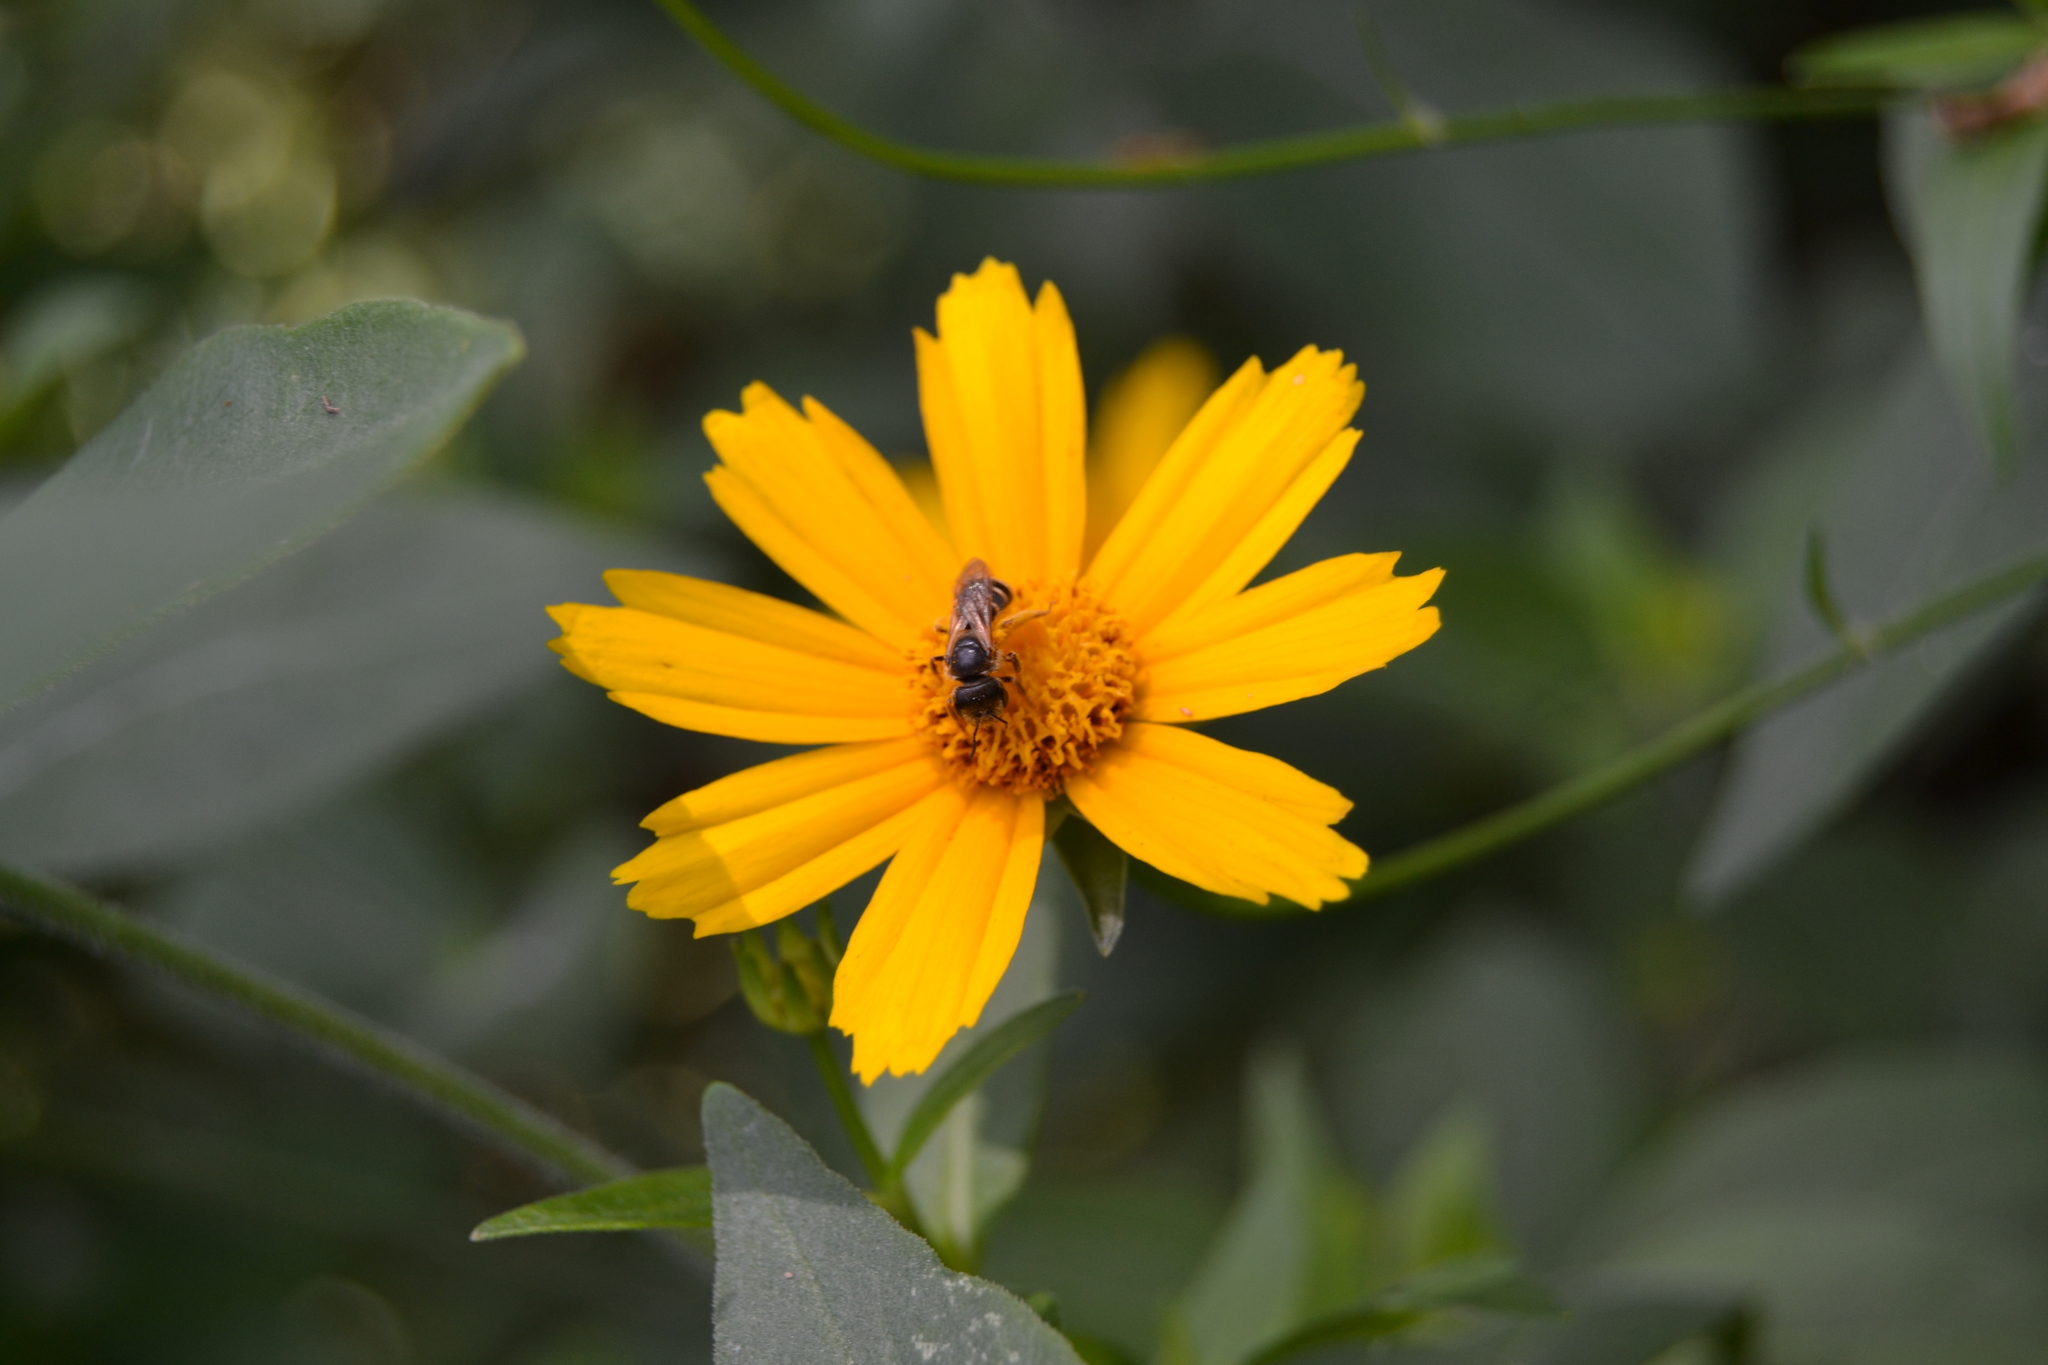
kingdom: Animalia
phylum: Arthropoda
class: Insecta
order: Hymenoptera
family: Halictidae
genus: Halictus
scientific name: Halictus ligatus
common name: Ligated furrow bee
